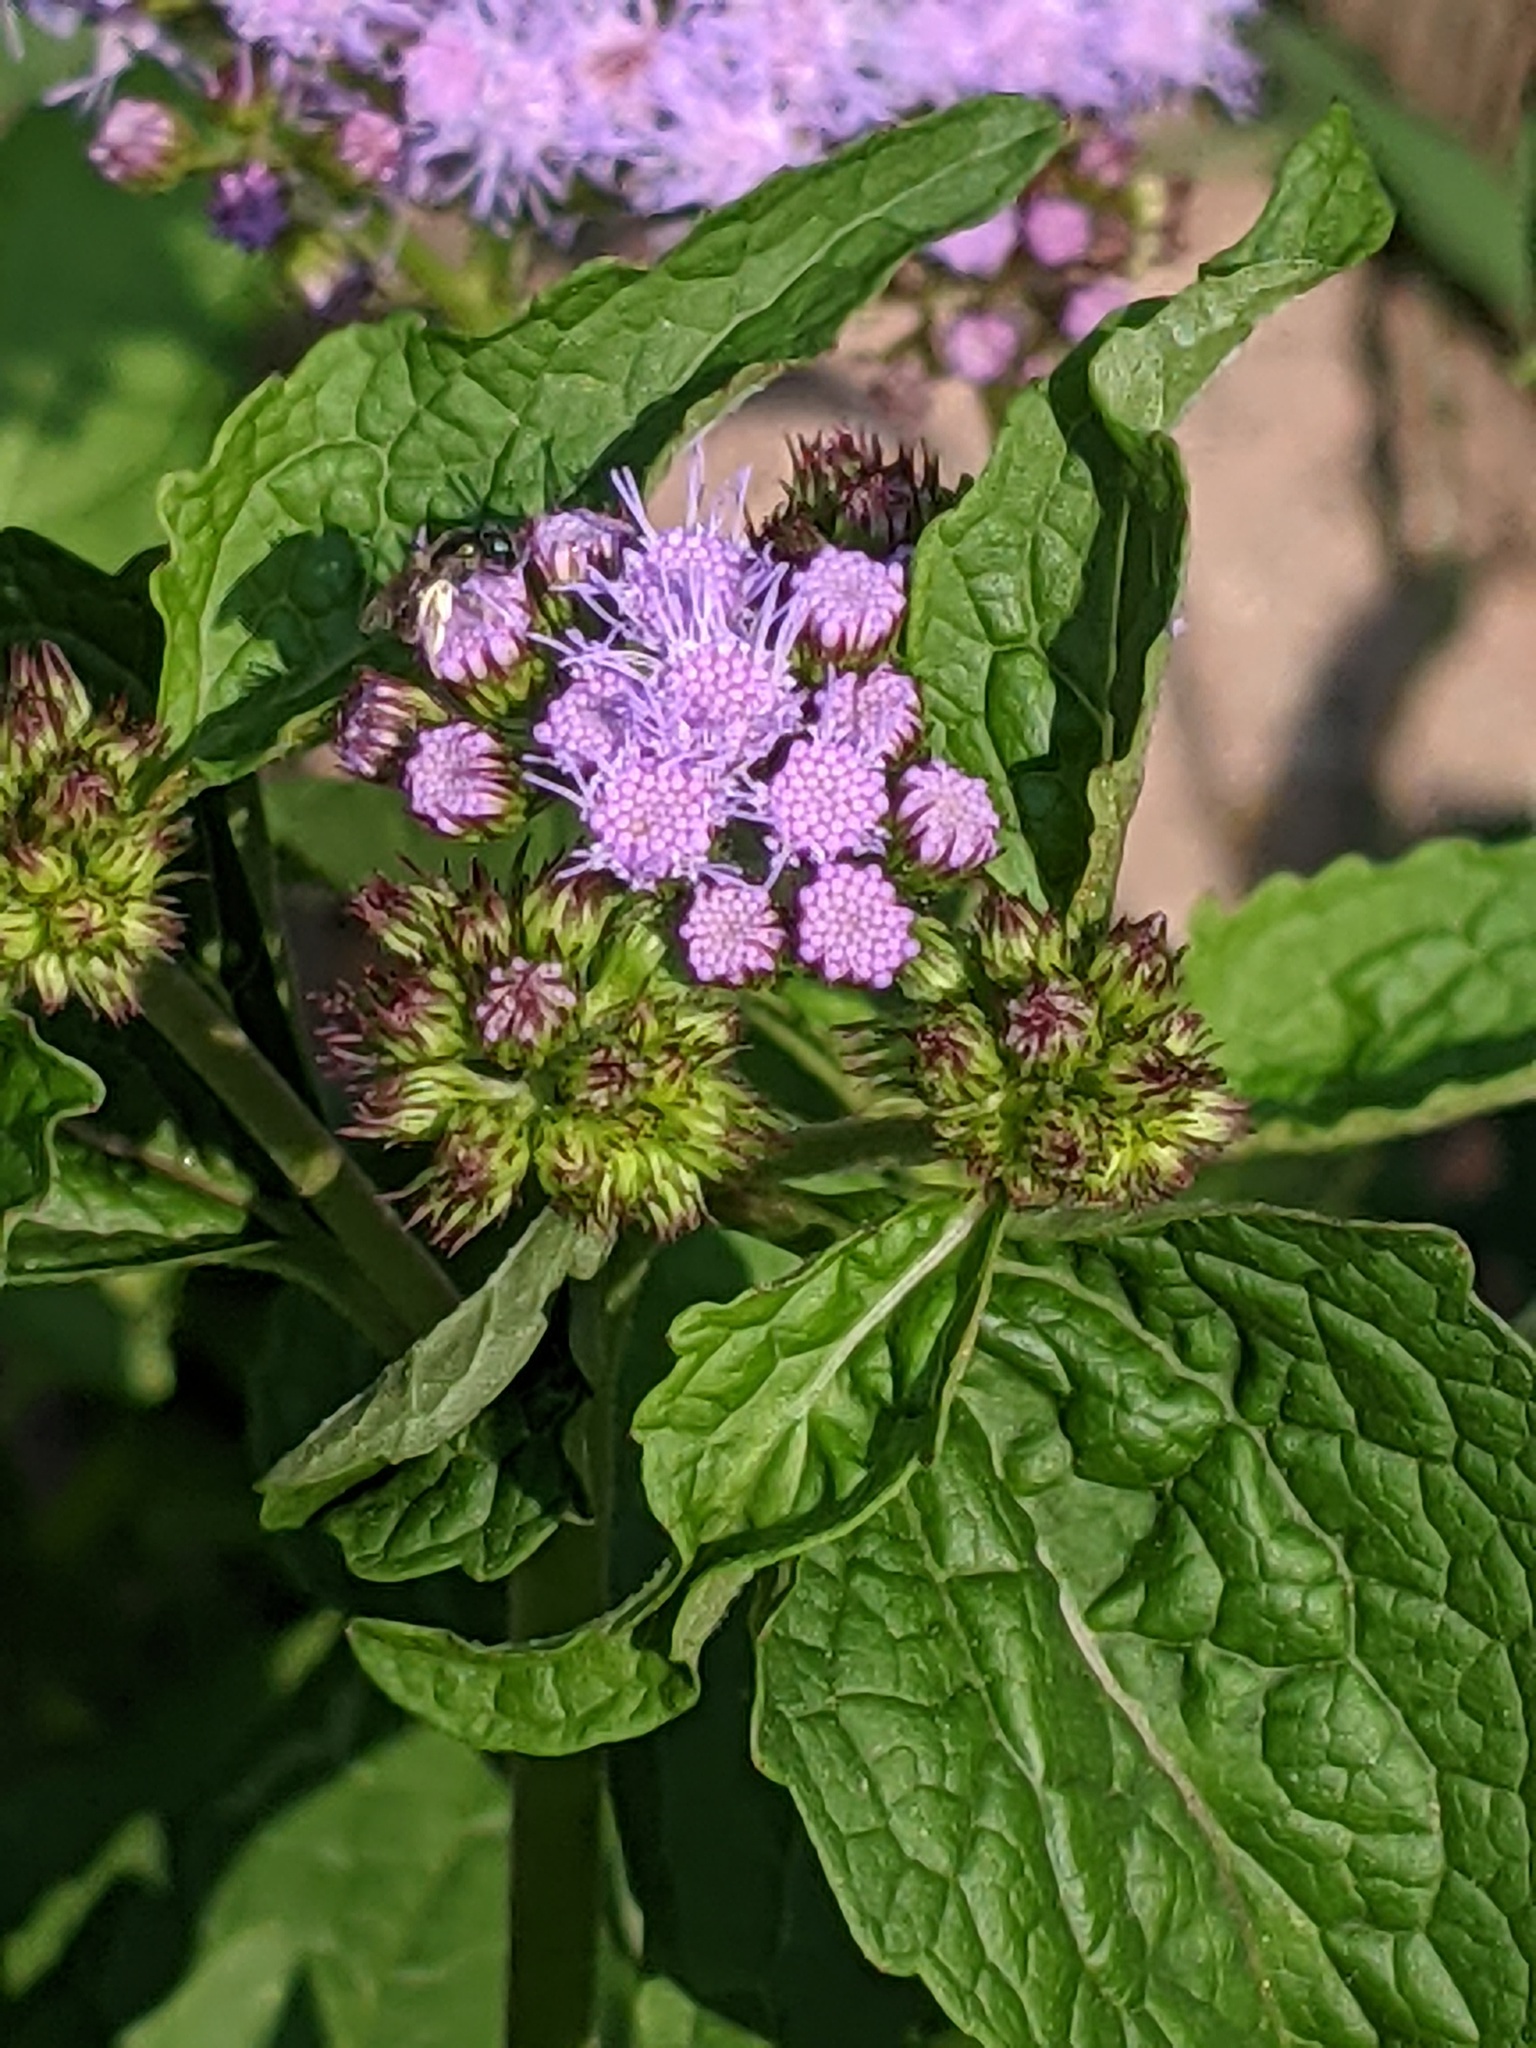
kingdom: Animalia
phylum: Arthropoda
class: Insecta
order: Hymenoptera
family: Halictidae
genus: Lasioglossum
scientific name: Lasioglossum
